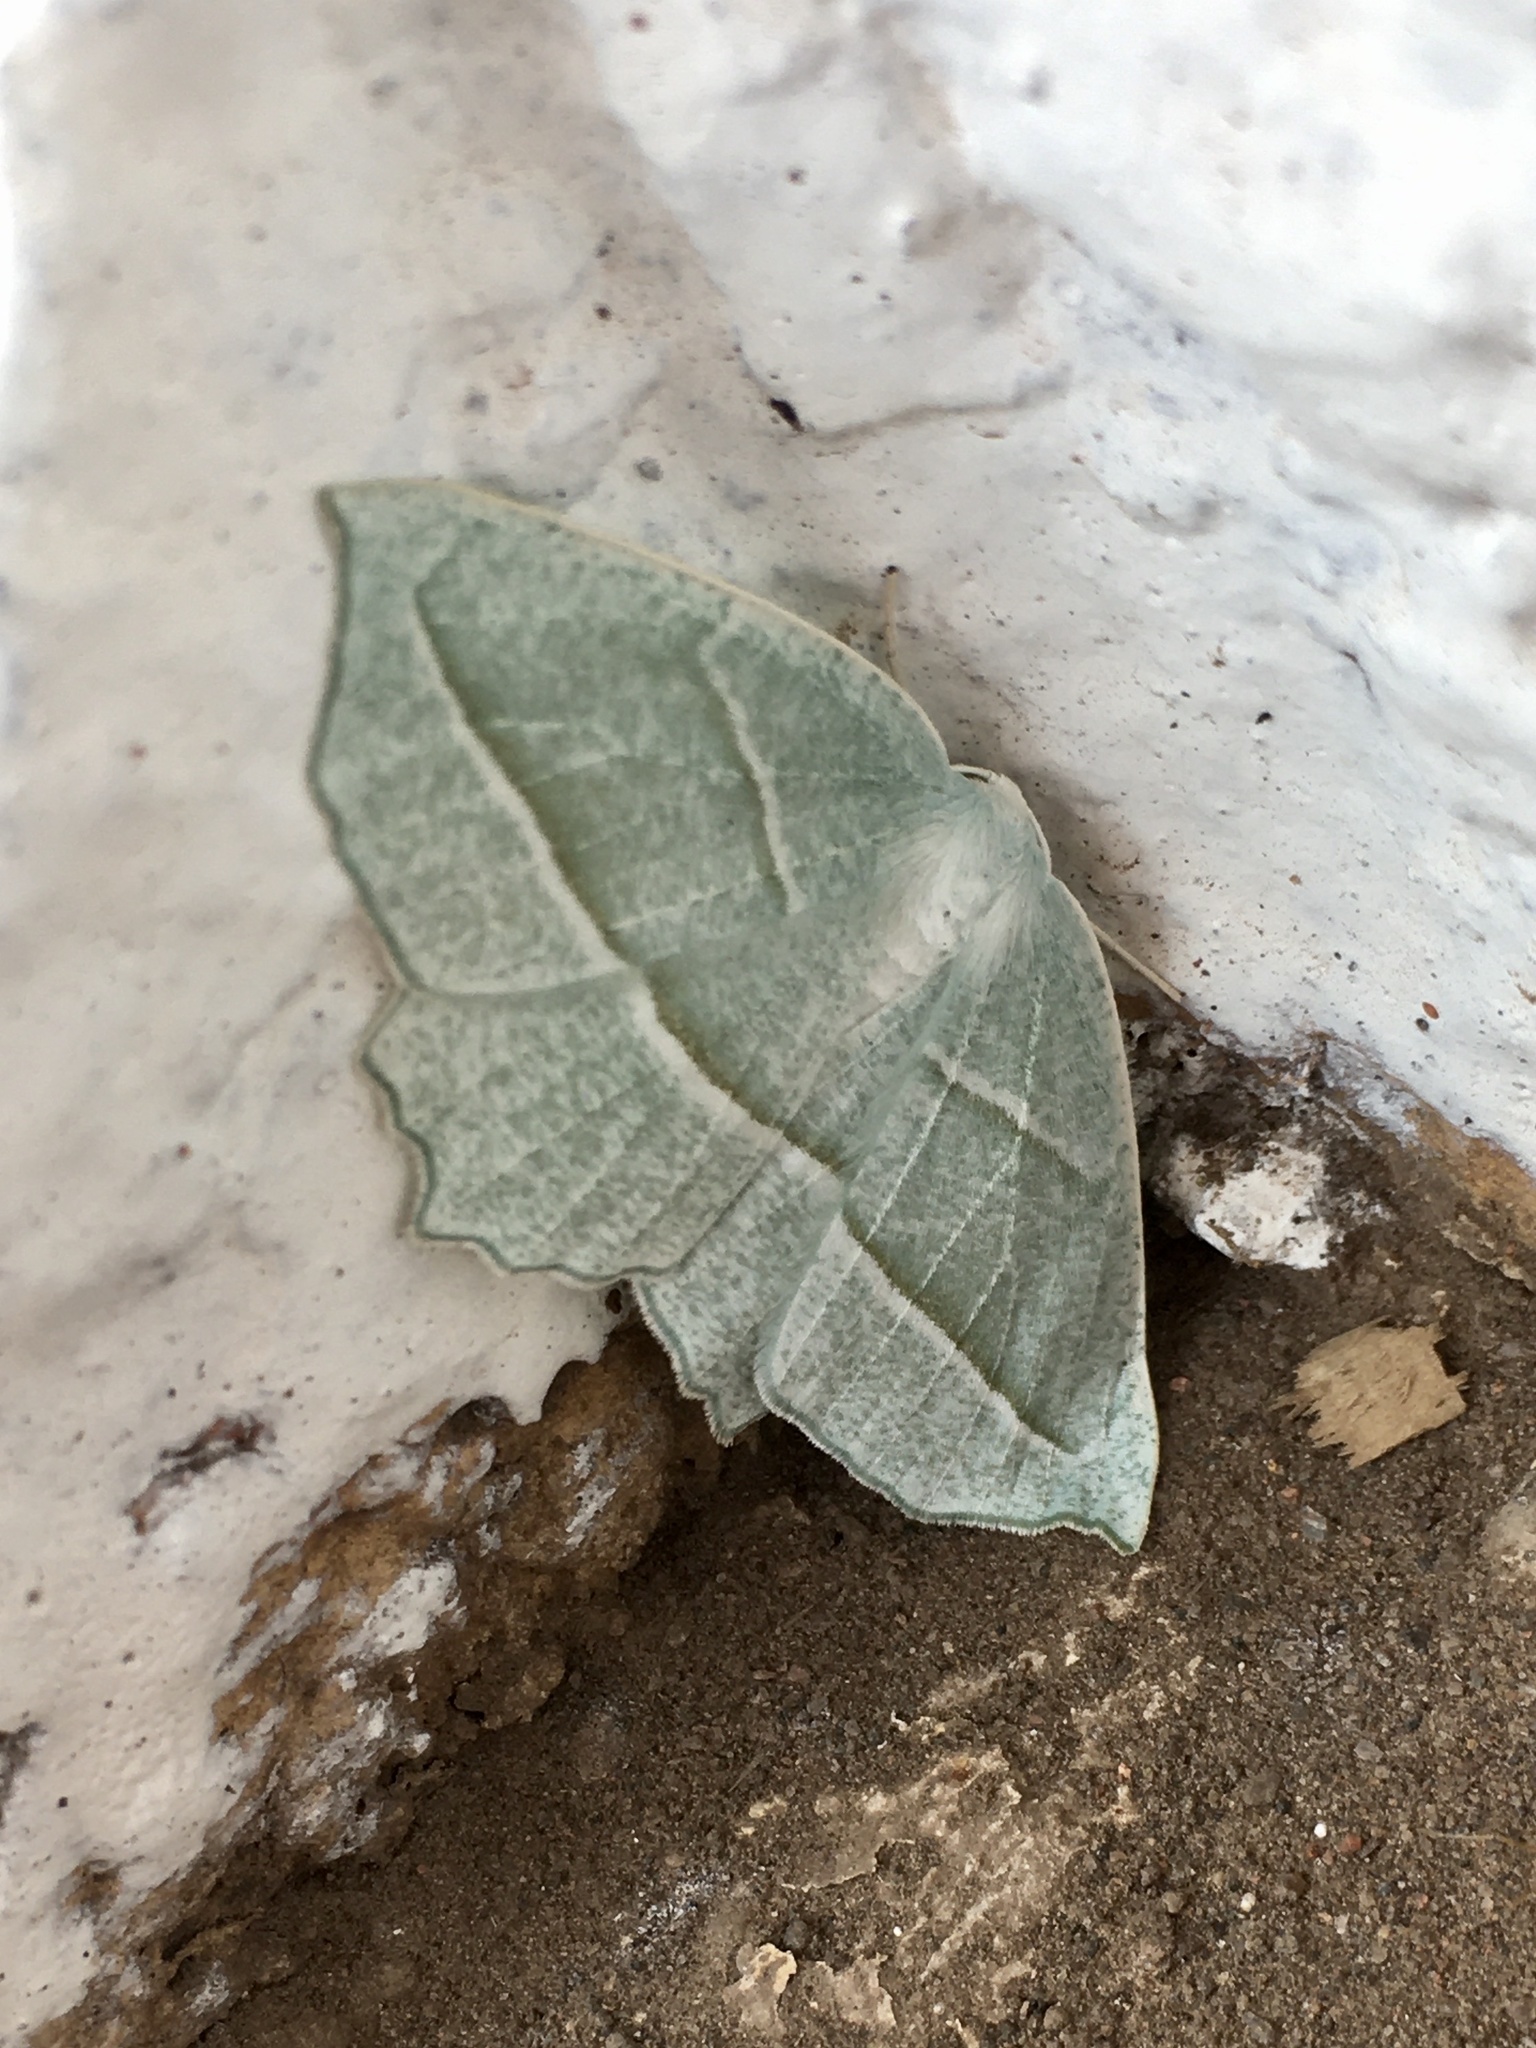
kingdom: Animalia
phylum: Arthropoda
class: Insecta
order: Lepidoptera
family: Geometridae
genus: Campaea
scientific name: Campaea perlata
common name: Fringed looper
